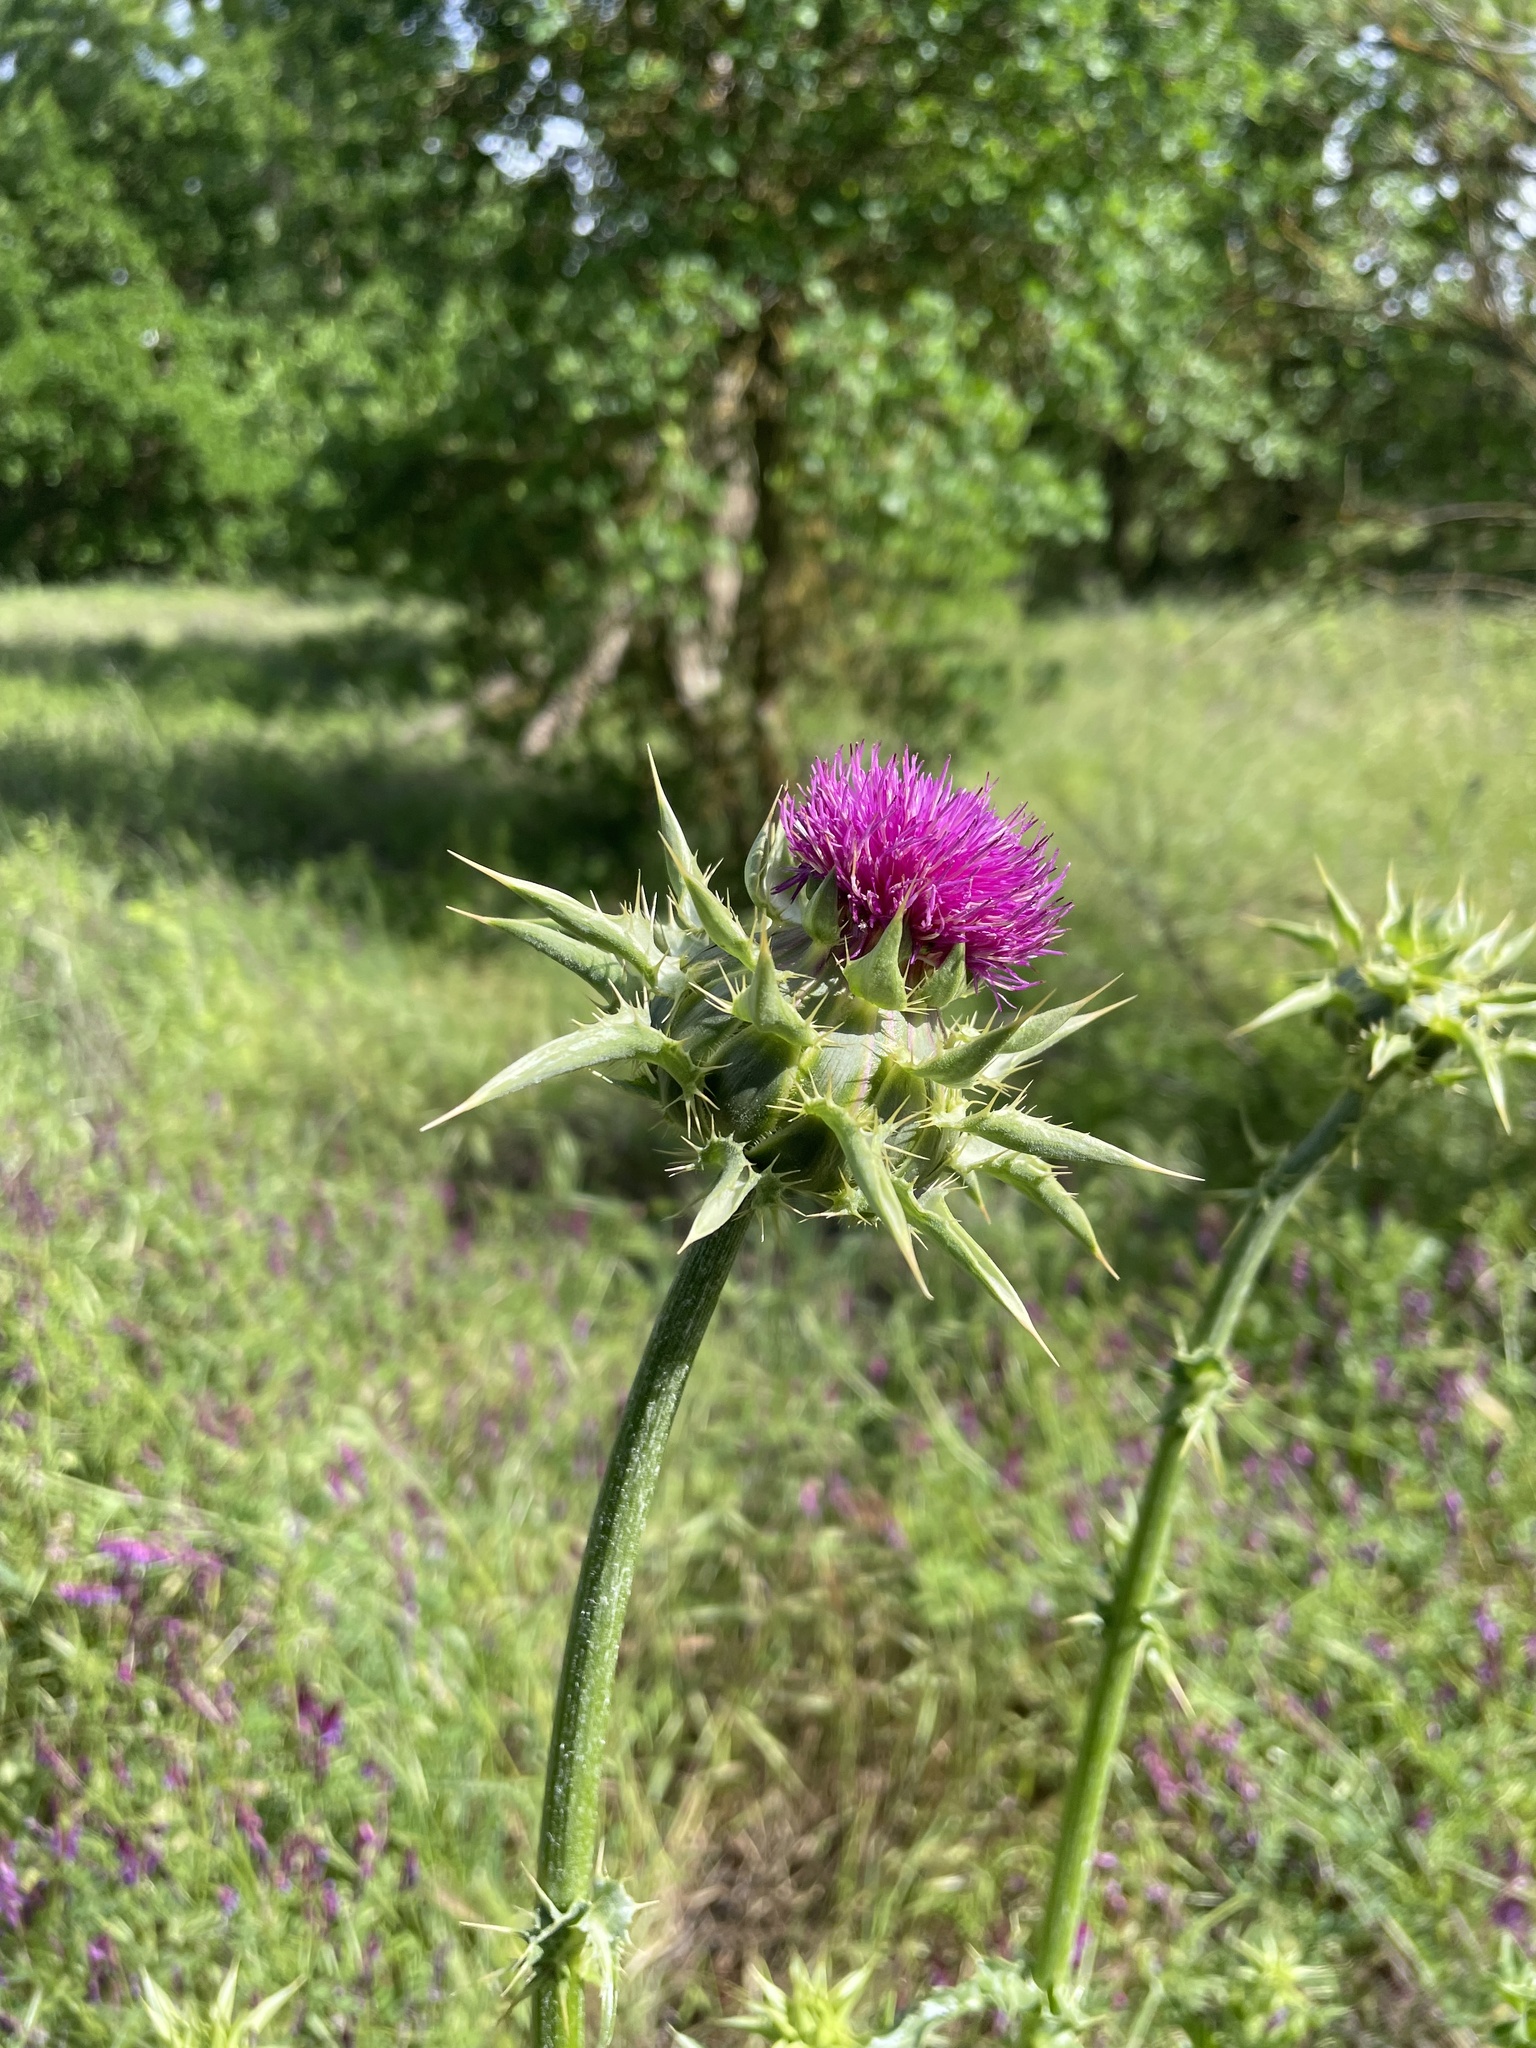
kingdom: Plantae
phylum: Tracheophyta
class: Magnoliopsida
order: Asterales
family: Asteraceae
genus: Silybum
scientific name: Silybum marianum
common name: Milk thistle
